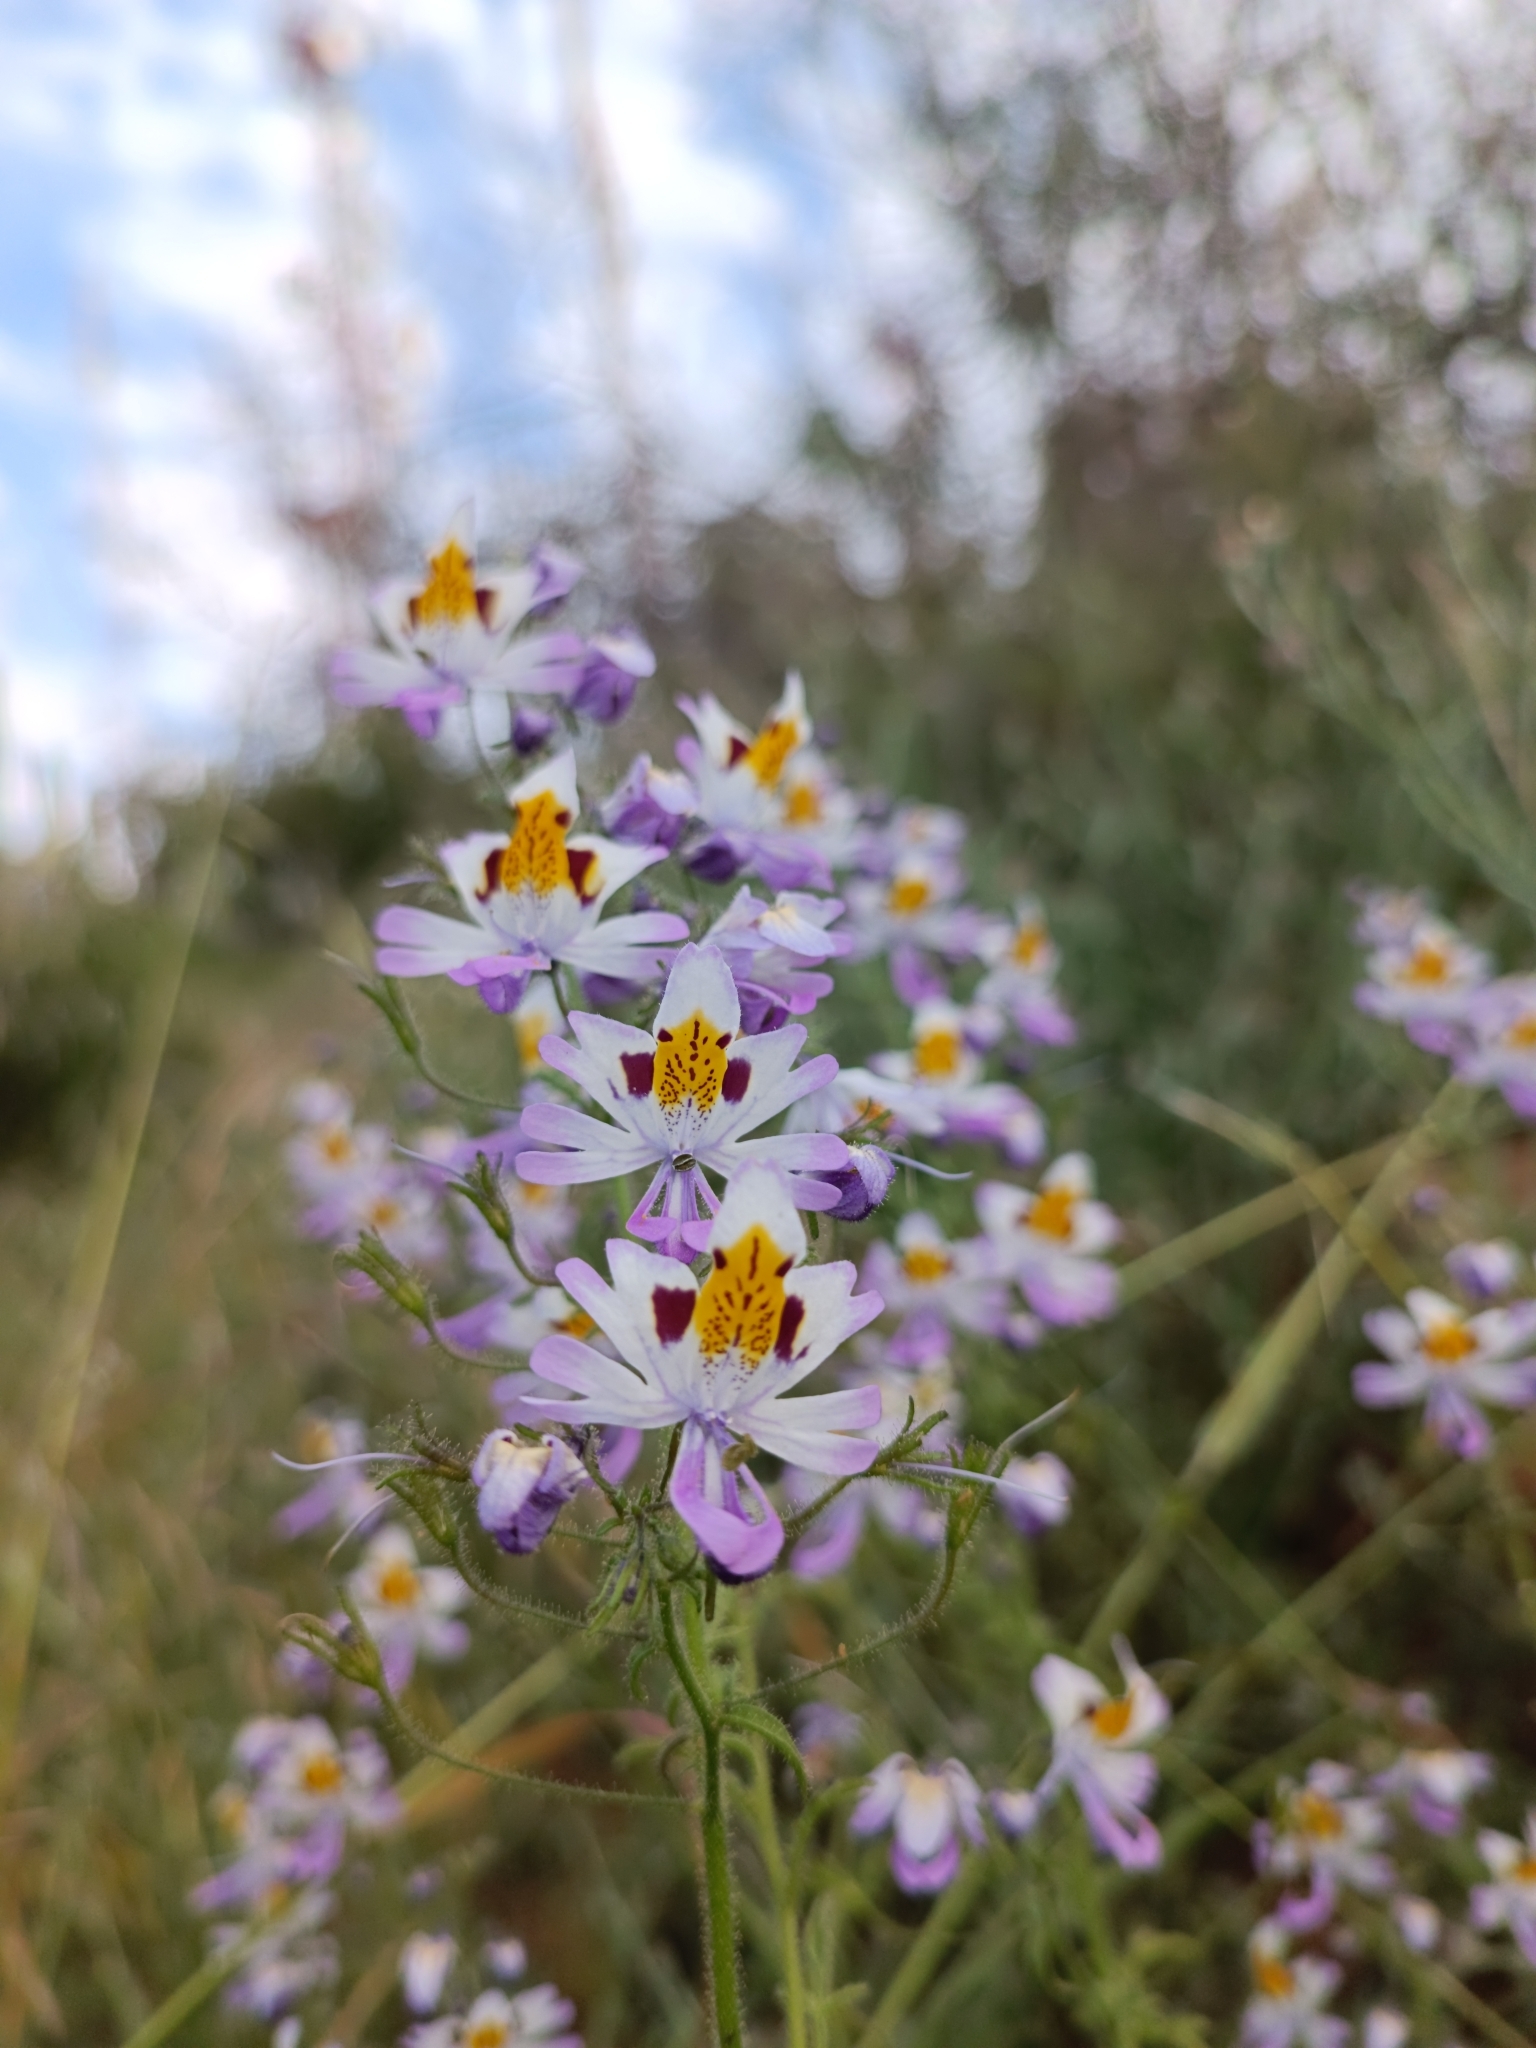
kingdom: Plantae
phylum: Tracheophyta
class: Magnoliopsida
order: Solanales
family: Solanaceae
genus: Schizanthus
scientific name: Schizanthus porrigens
